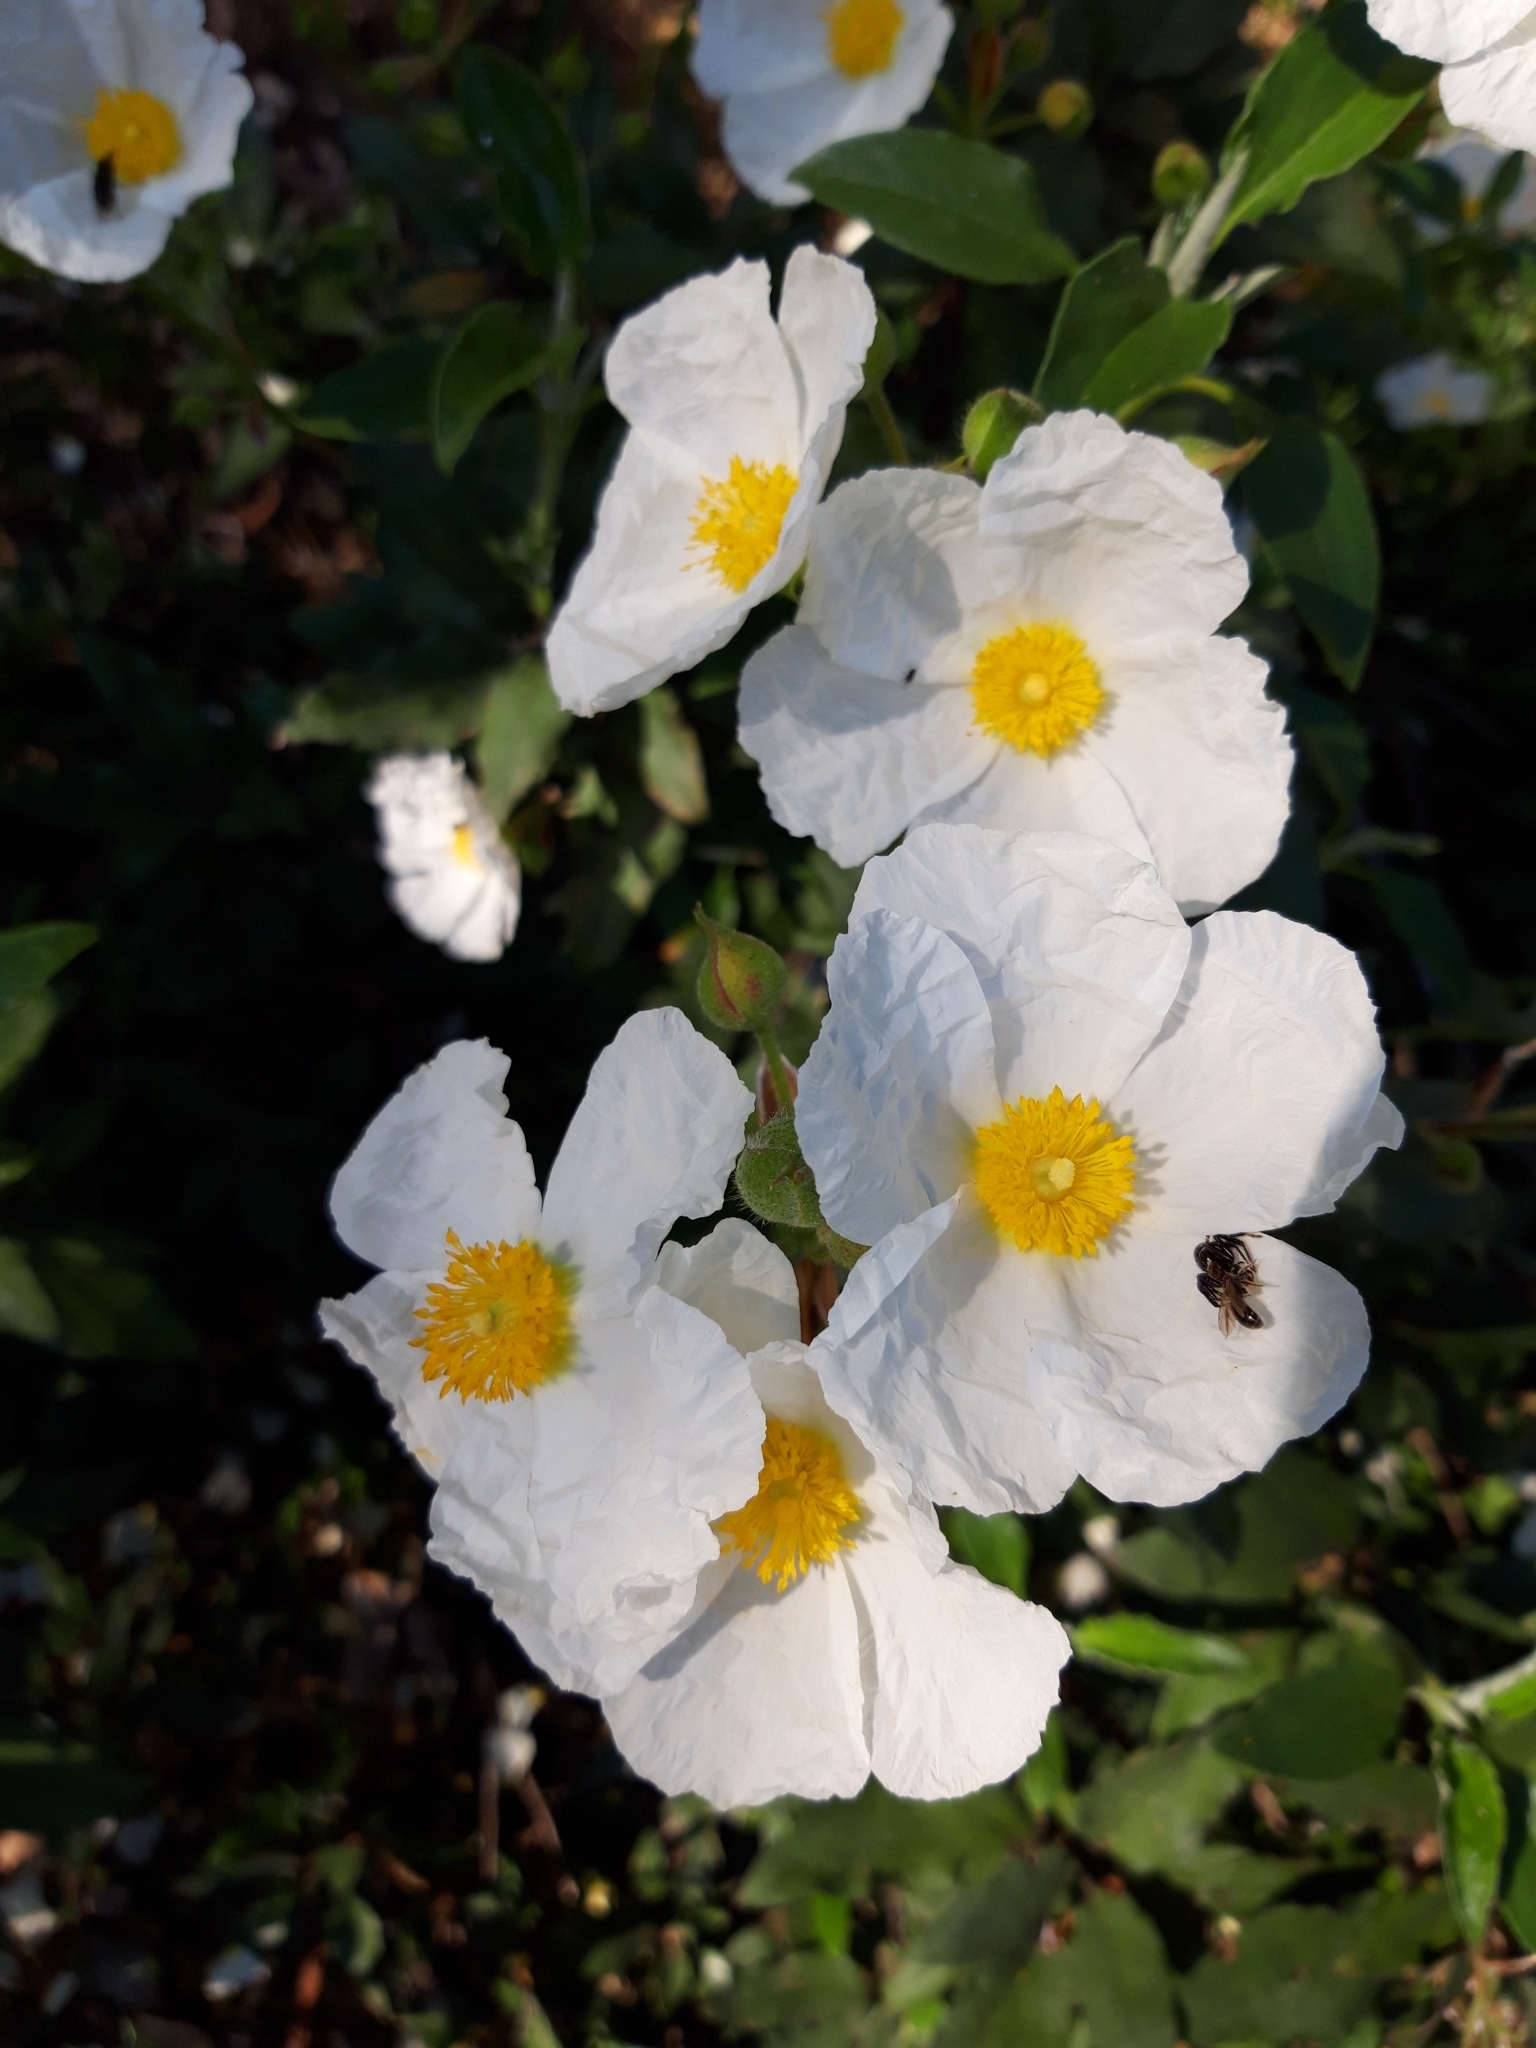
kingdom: Plantae
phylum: Tracheophyta
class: Magnoliopsida
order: Malvales
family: Cistaceae
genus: Cistus
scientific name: Cistus laurifolius
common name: Laurel-leaved cistus
